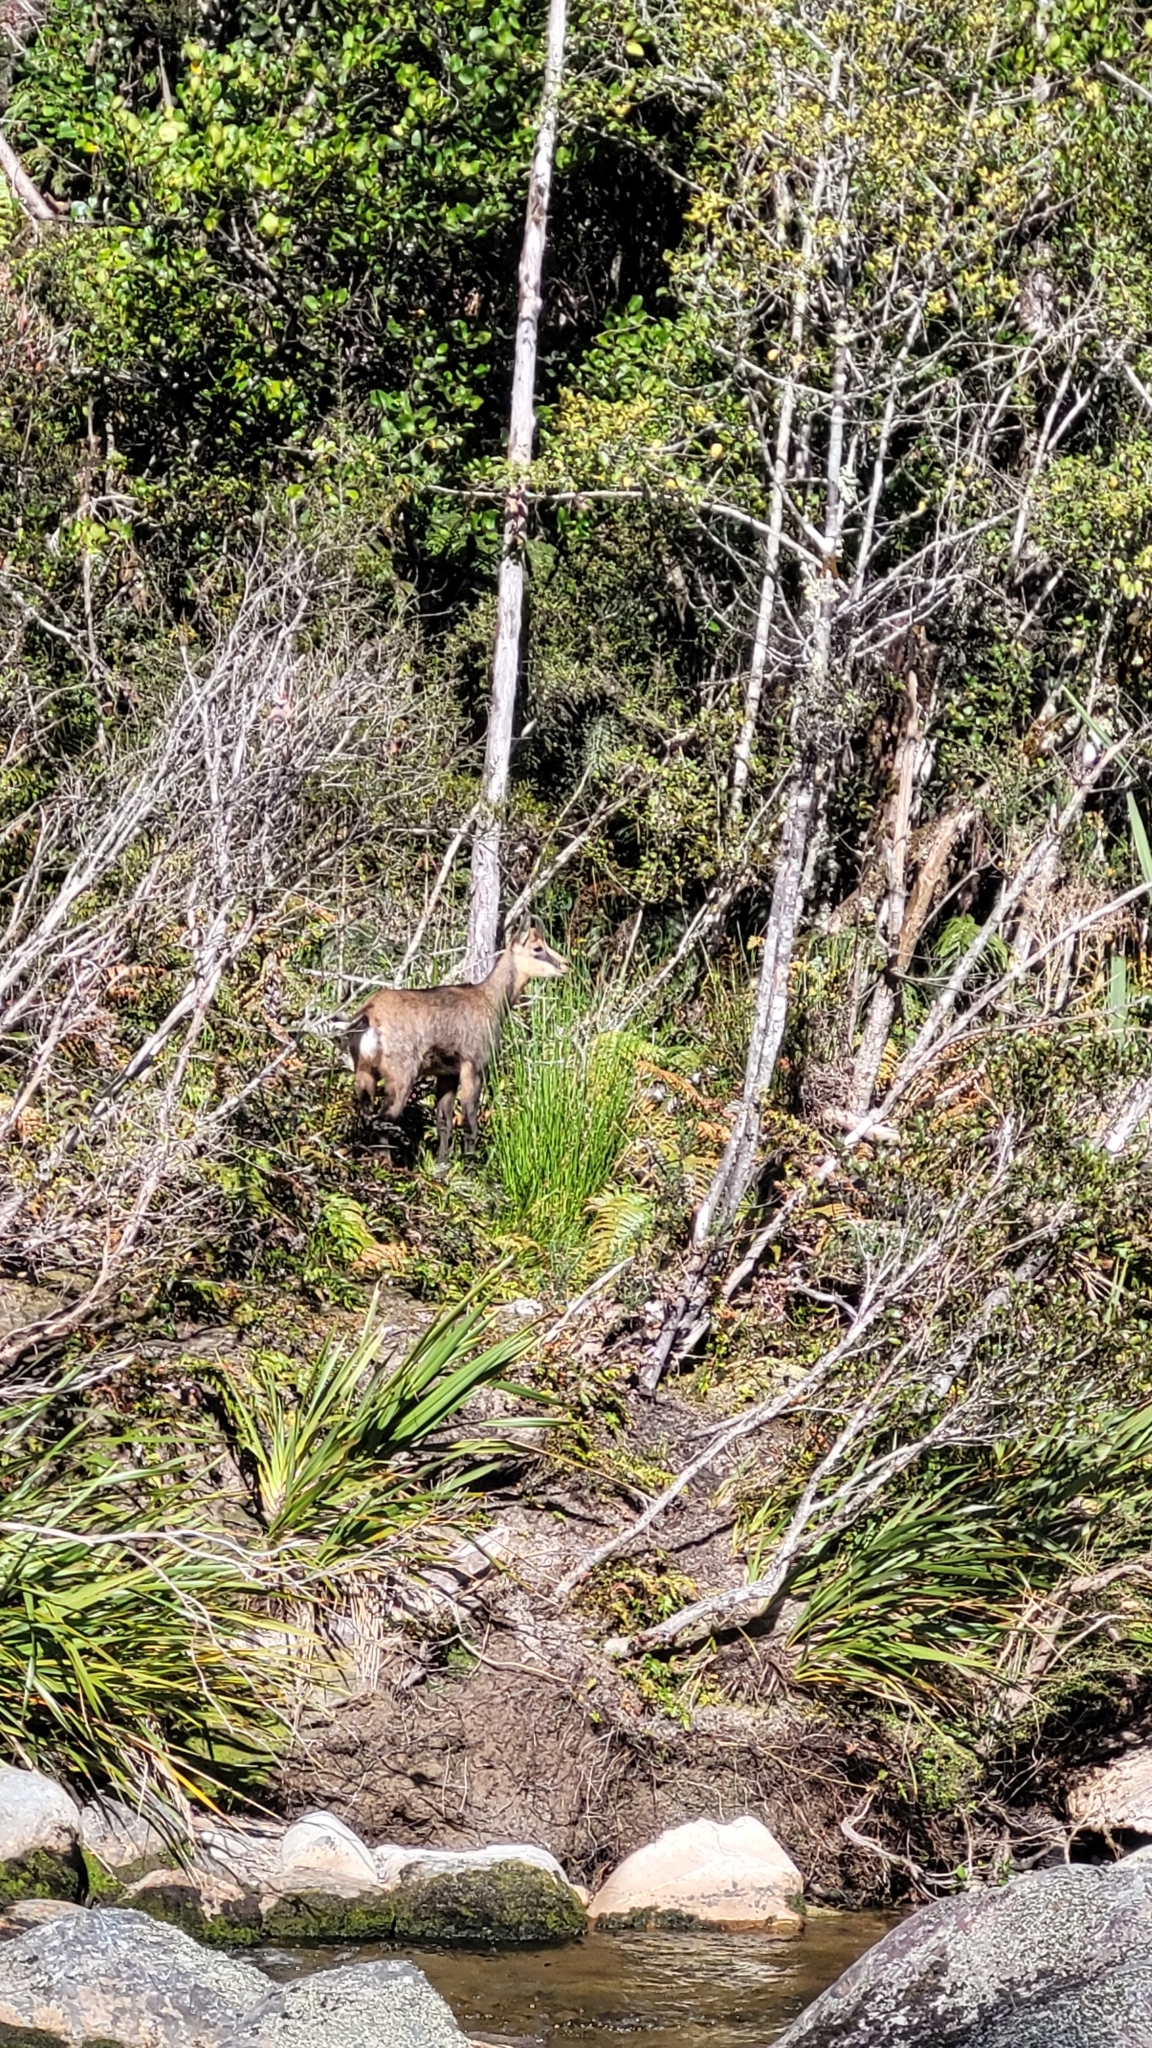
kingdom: Animalia
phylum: Chordata
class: Mammalia
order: Artiodactyla
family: Bovidae
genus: Rupicapra
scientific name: Rupicapra rupicapra
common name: Chamois
